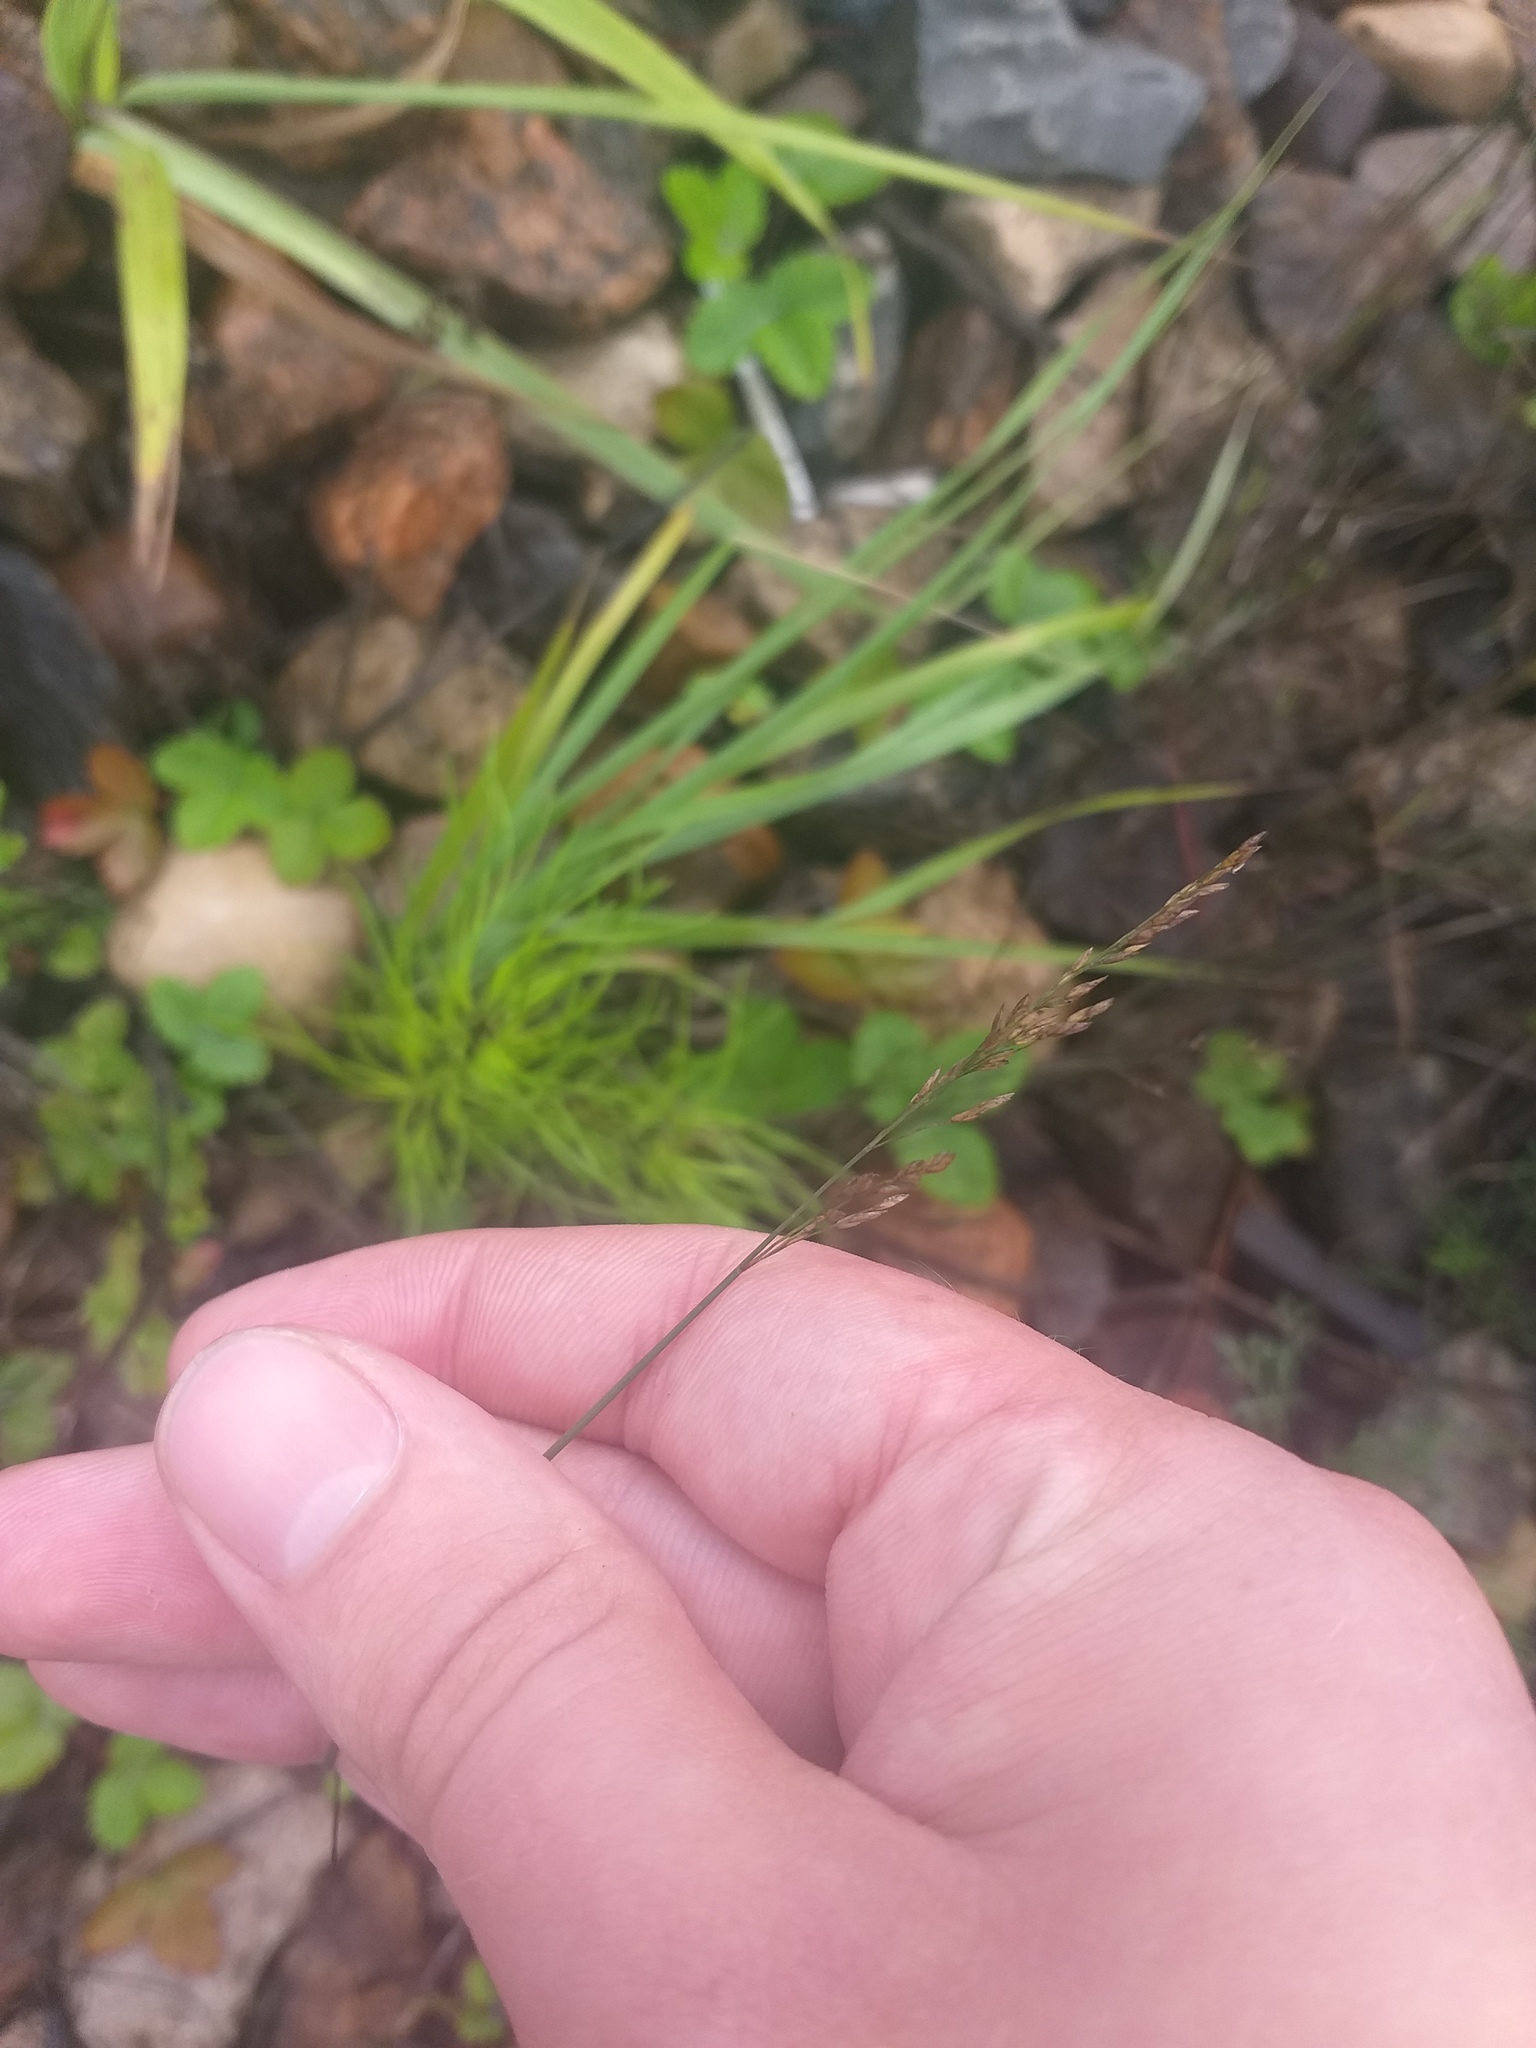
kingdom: Plantae
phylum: Tracheophyta
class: Liliopsida
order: Poales
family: Poaceae
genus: Poa
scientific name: Poa compressa
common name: Canada bluegrass
